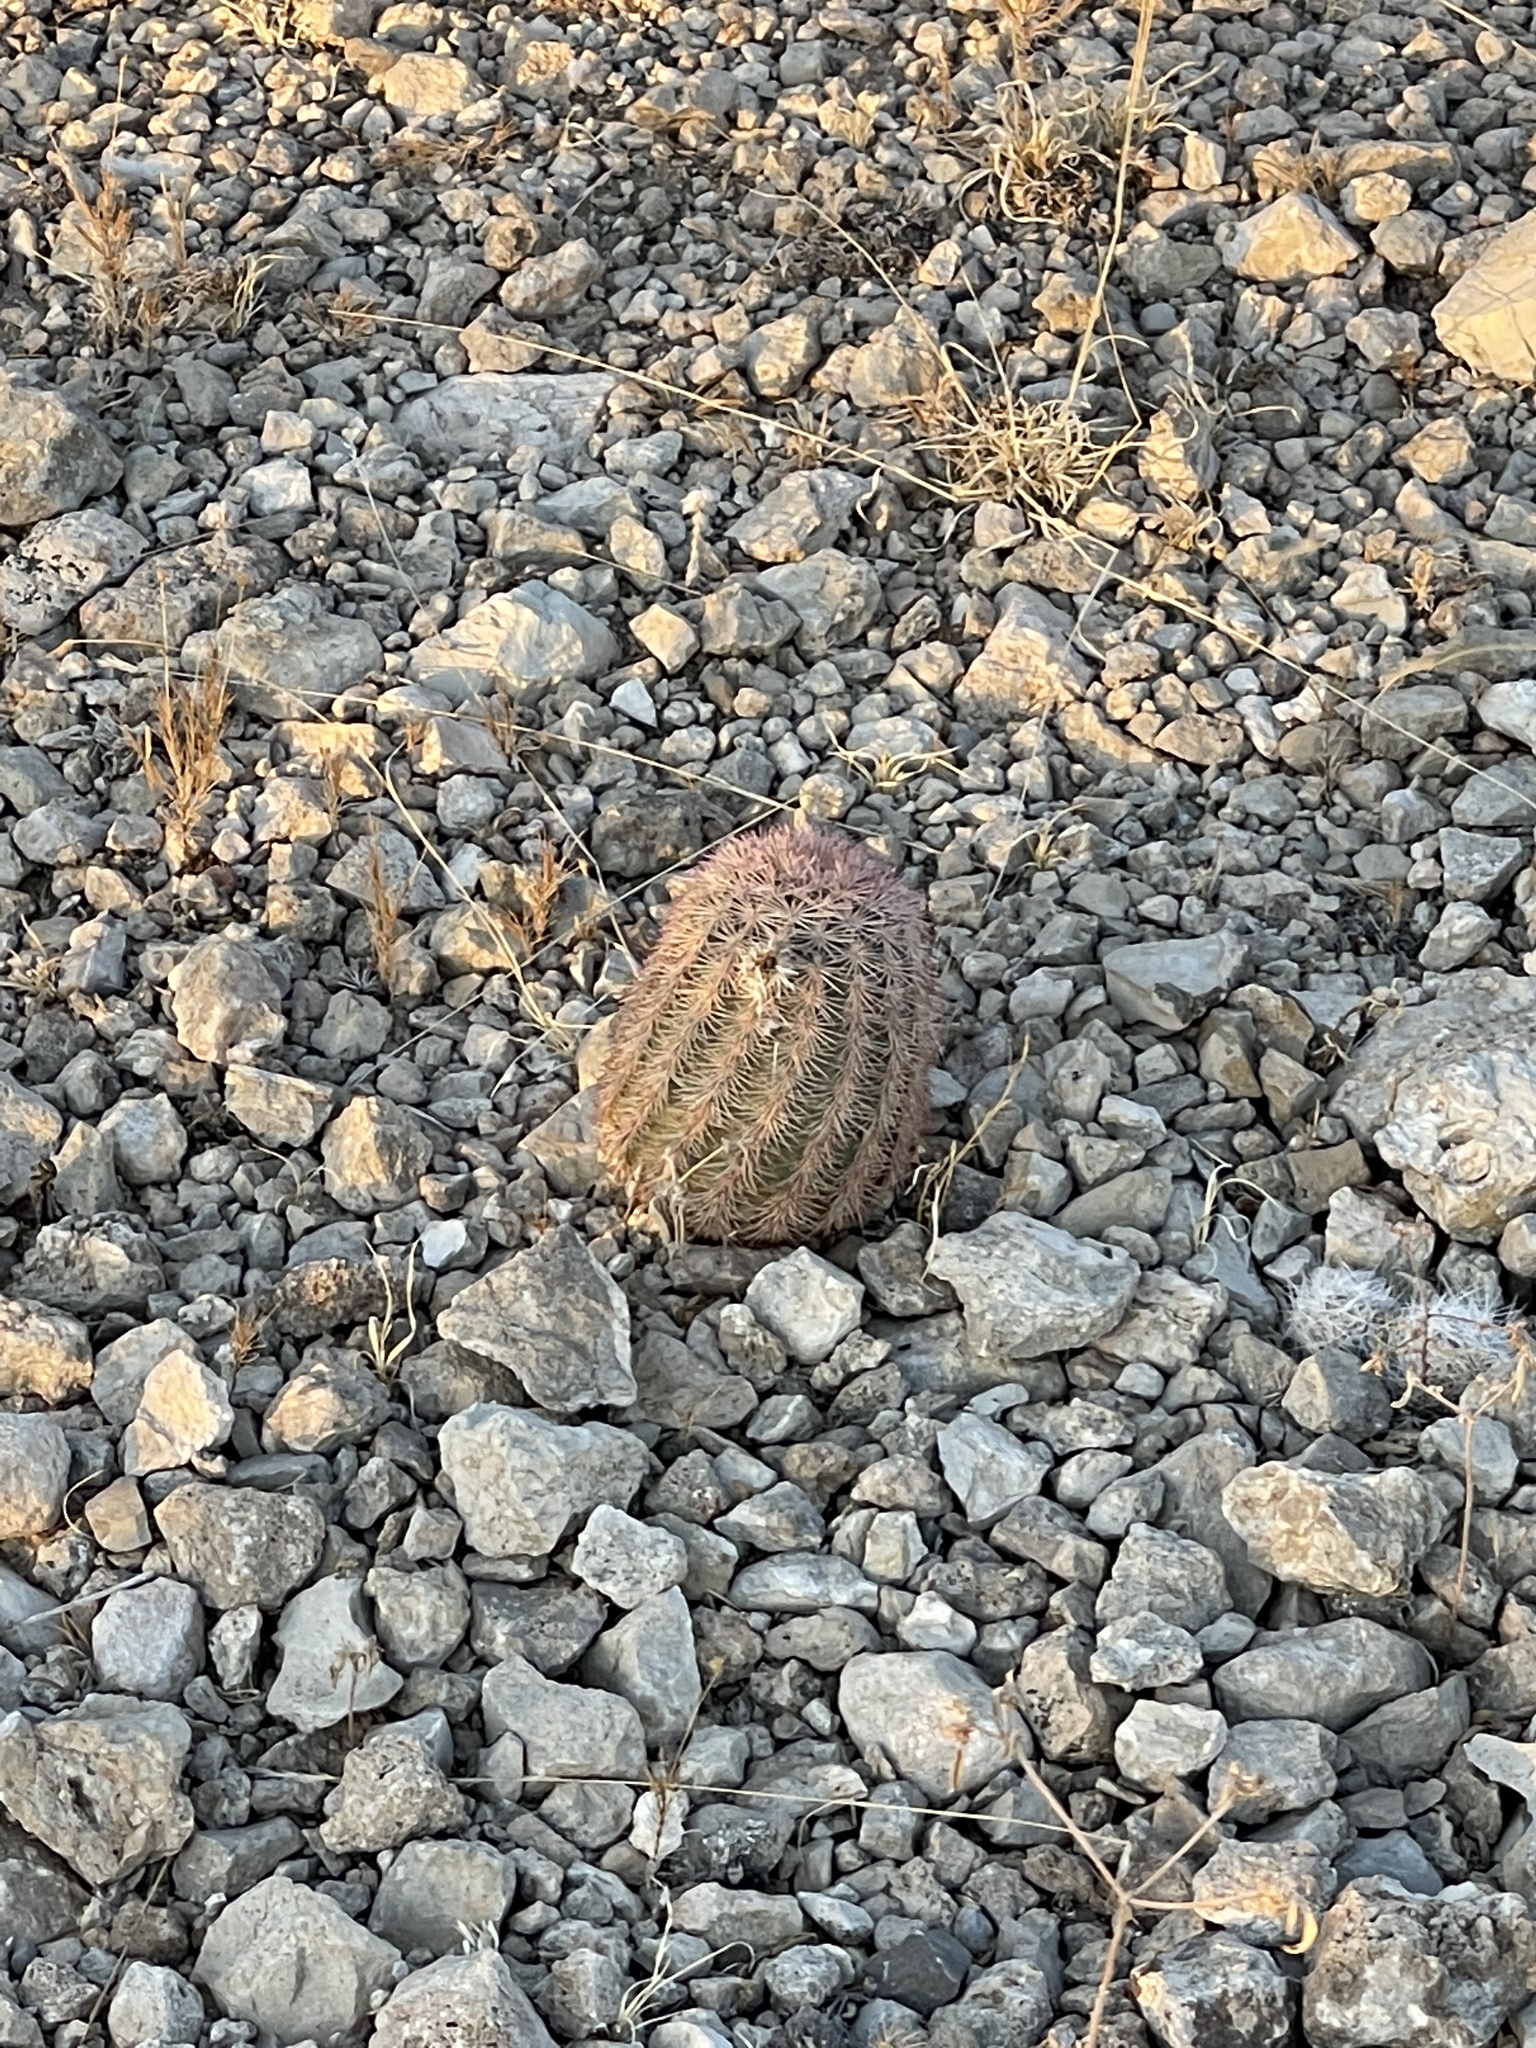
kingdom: Plantae
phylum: Tracheophyta
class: Magnoliopsida
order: Caryophyllales
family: Cactaceae
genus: Echinocereus
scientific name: Echinocereus dasyacanthus
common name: Spiny hedgehog cactus
